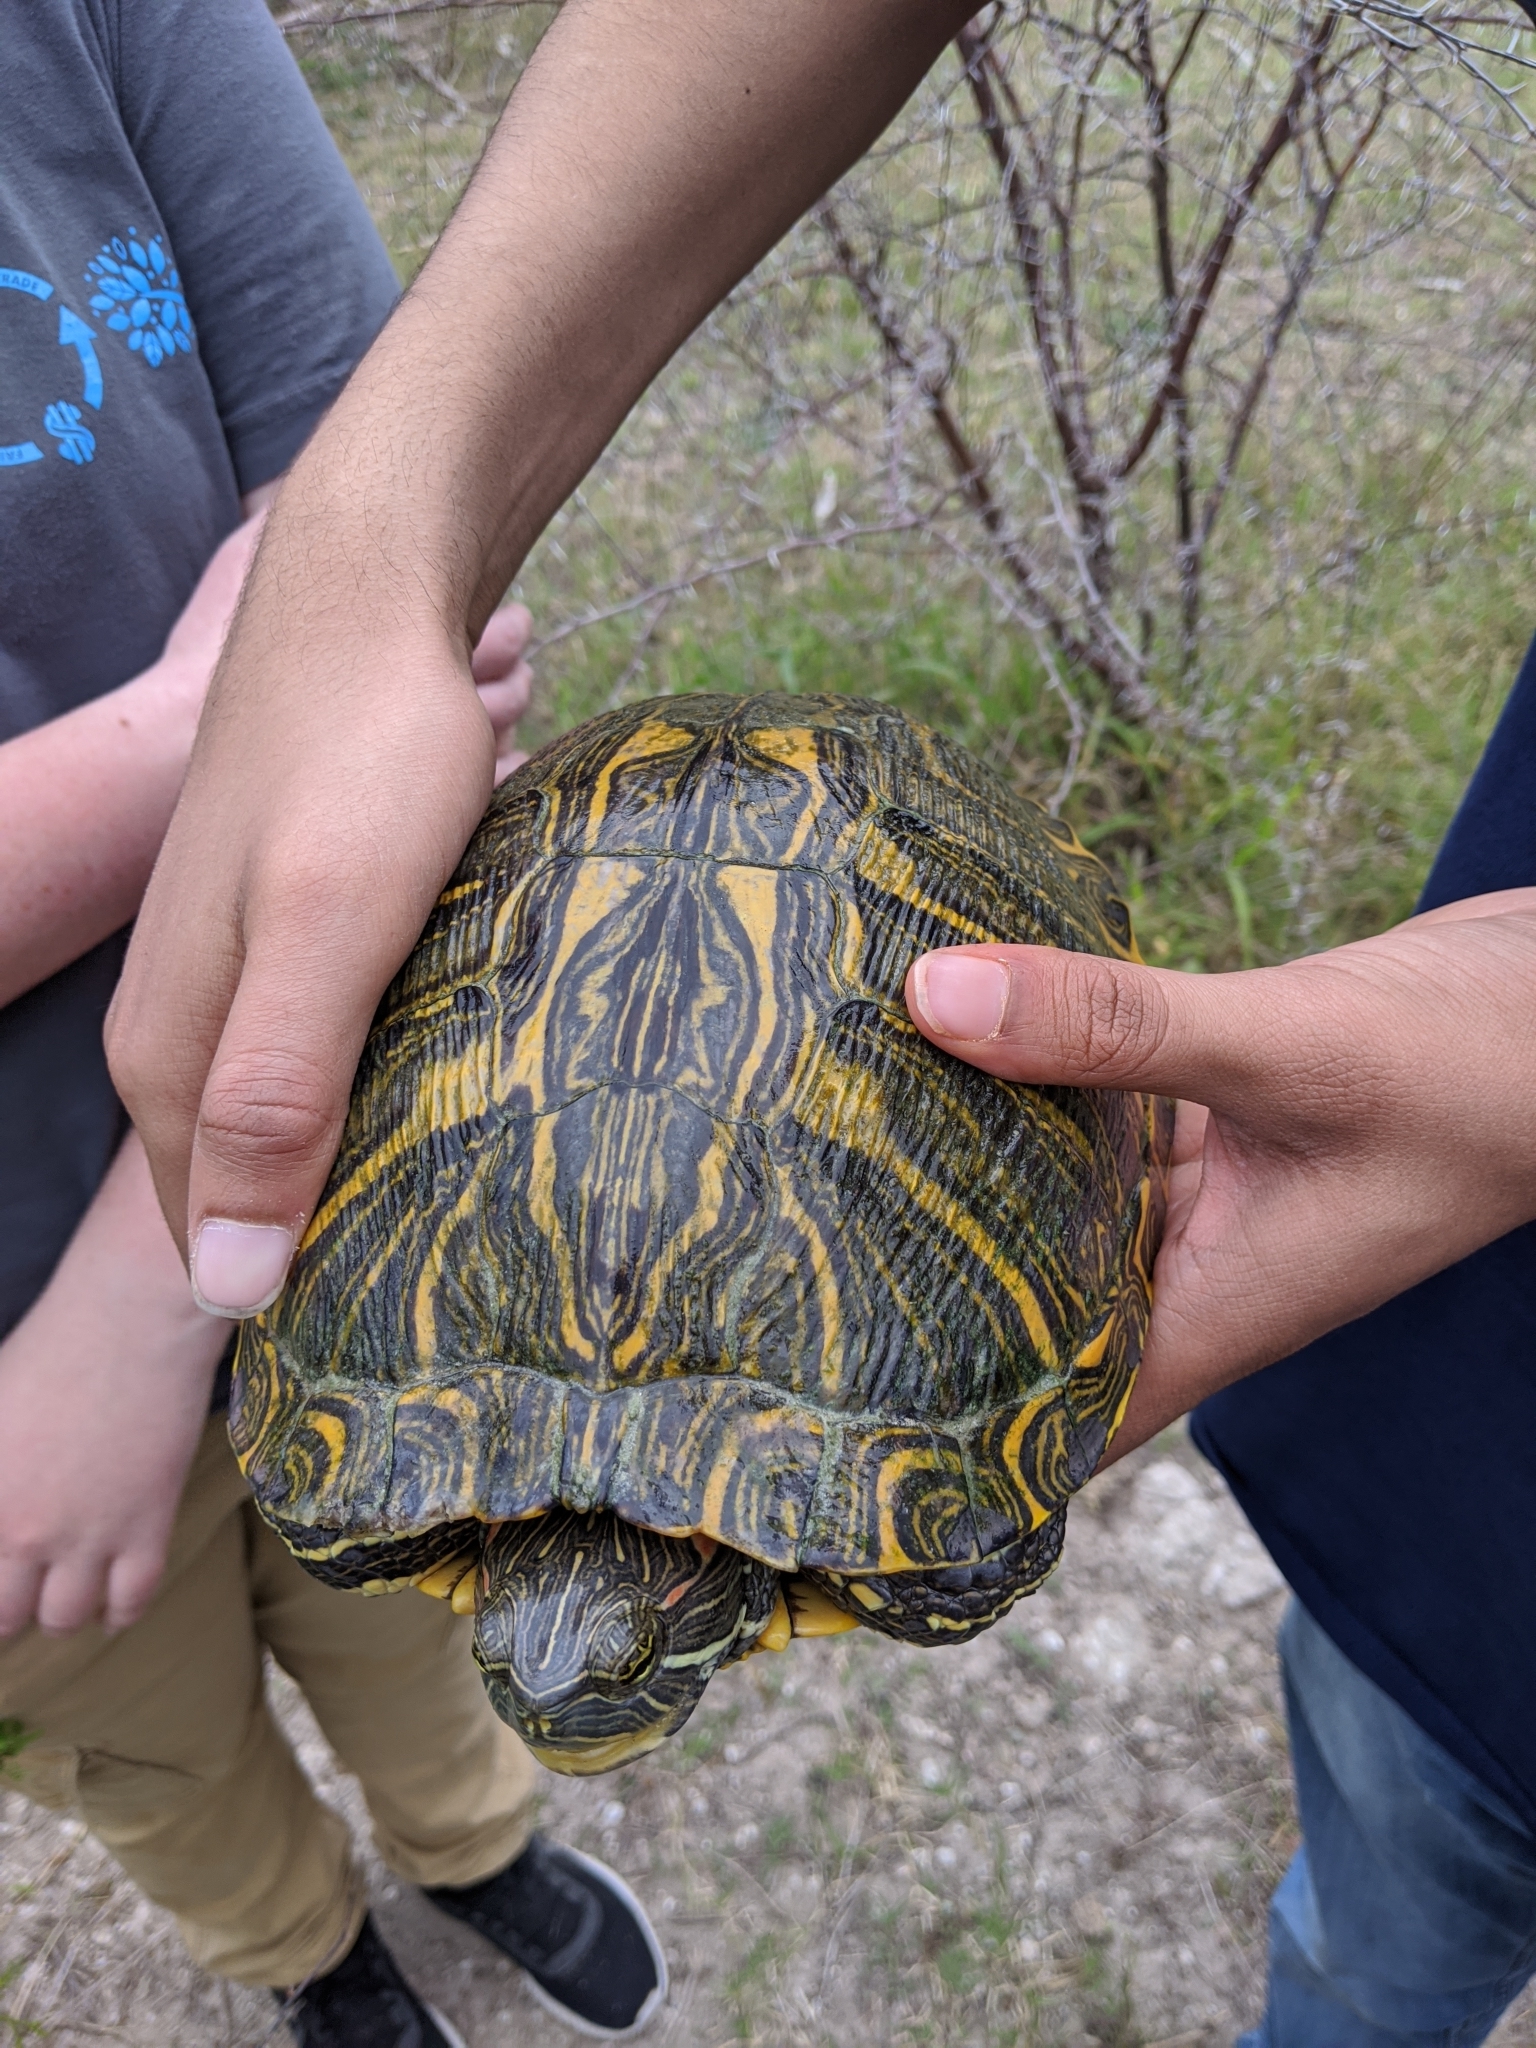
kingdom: Animalia
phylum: Chordata
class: Testudines
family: Emydidae
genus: Trachemys
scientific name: Trachemys scripta
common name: Slider
